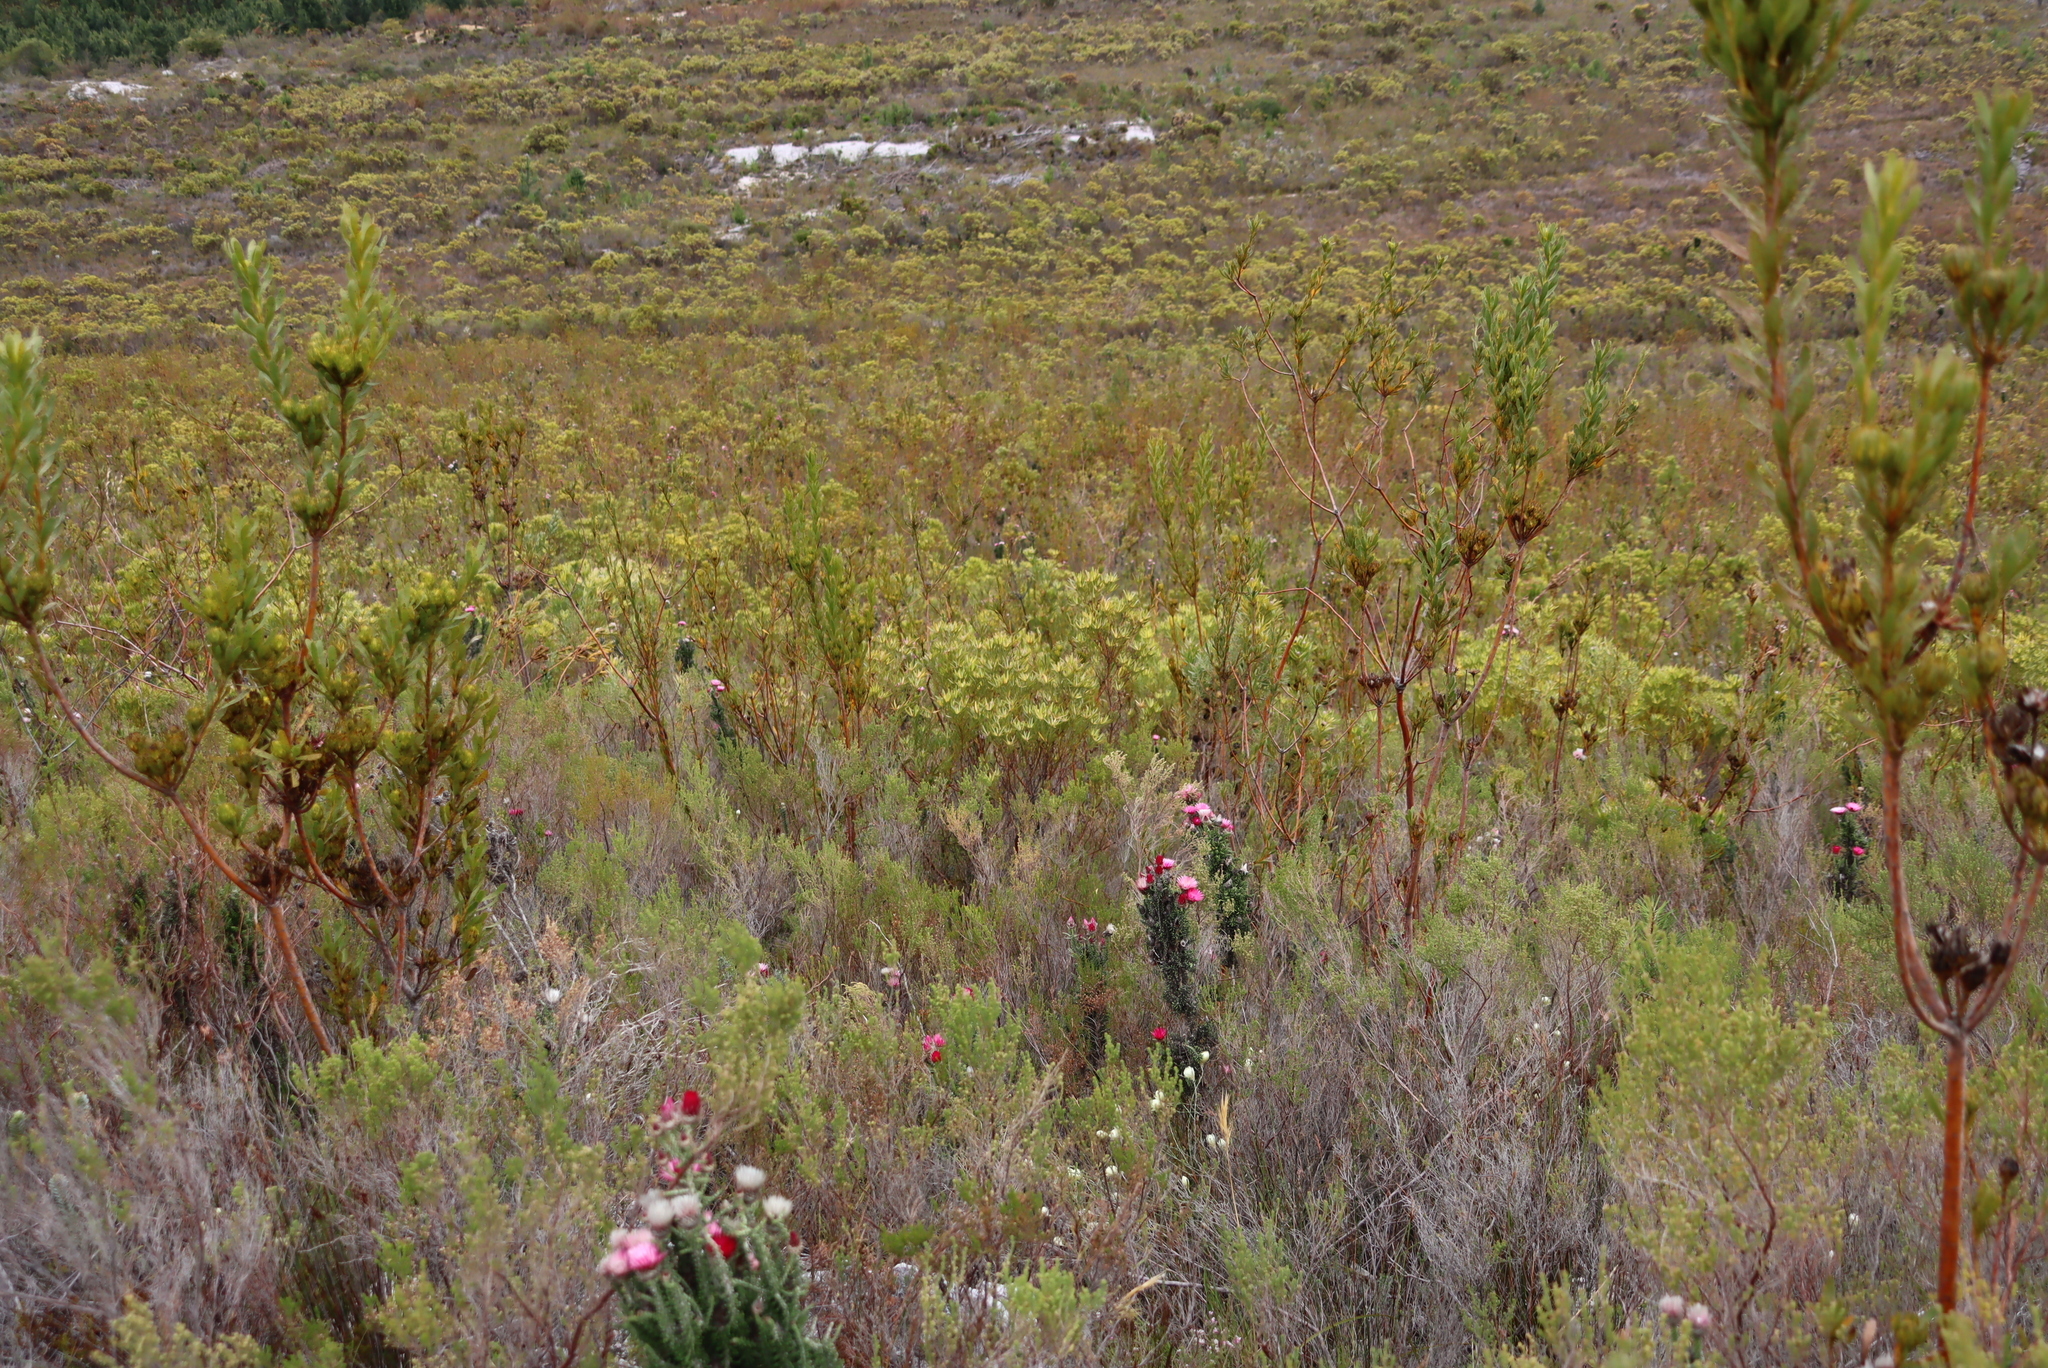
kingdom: Plantae
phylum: Tracheophyta
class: Magnoliopsida
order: Proteales
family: Proteaceae
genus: Aulax
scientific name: Aulax umbellata
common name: Broad-leaf featherbush
